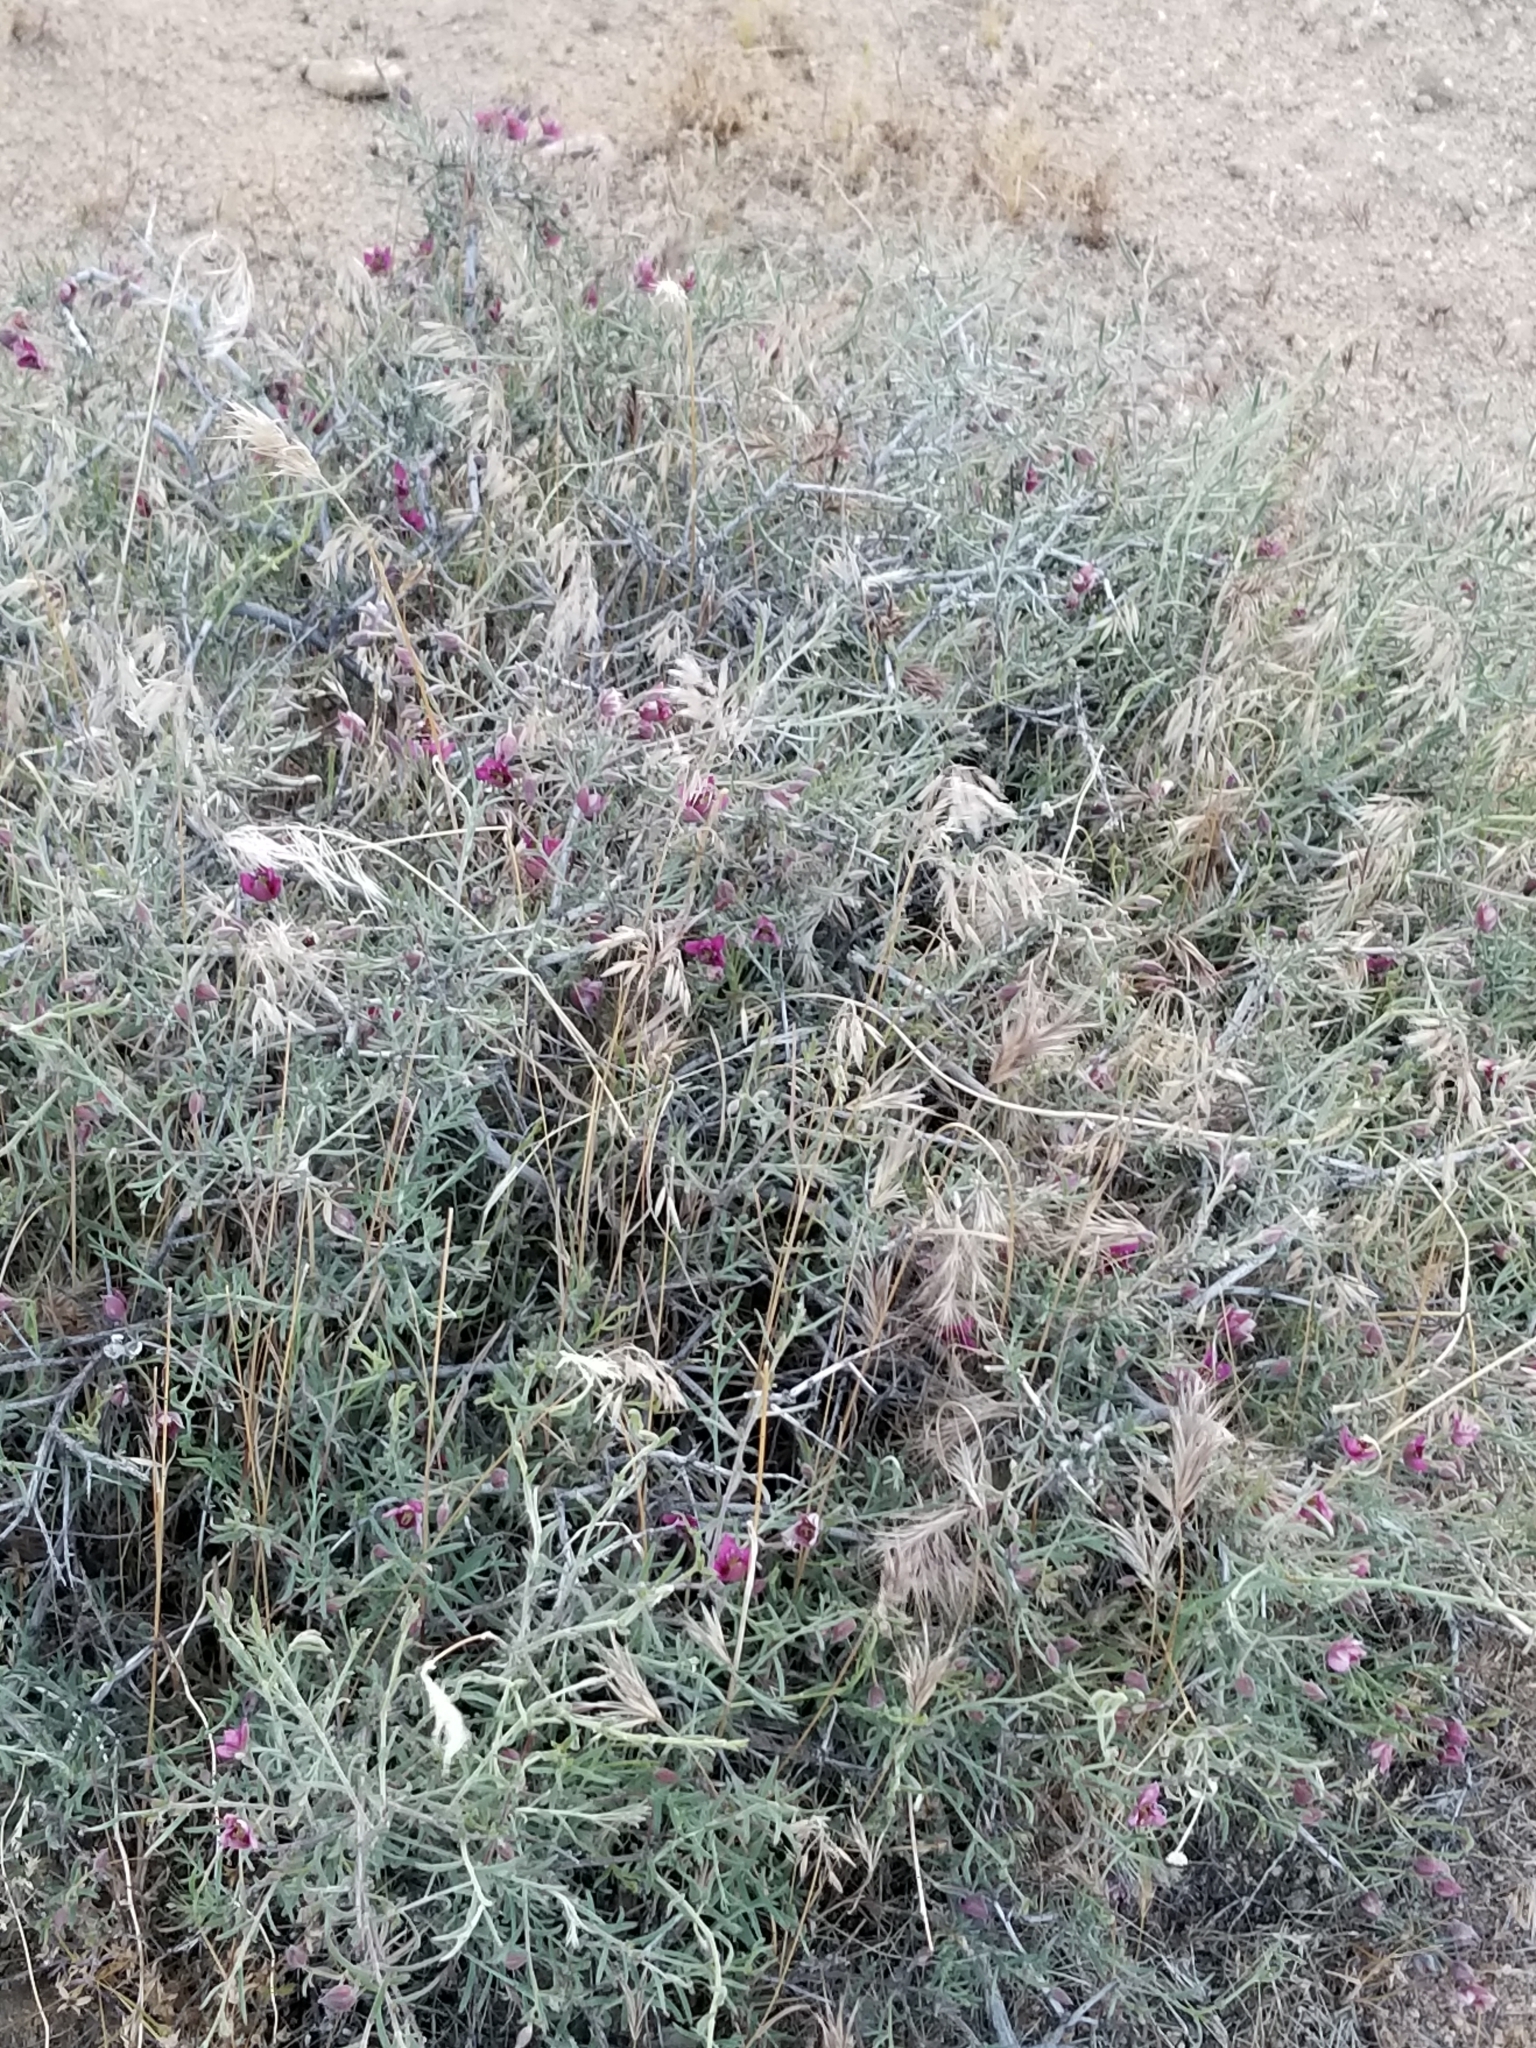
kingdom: Plantae
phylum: Tracheophyta
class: Magnoliopsida
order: Zygophyllales
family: Krameriaceae
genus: Krameria
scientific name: Krameria erecta
